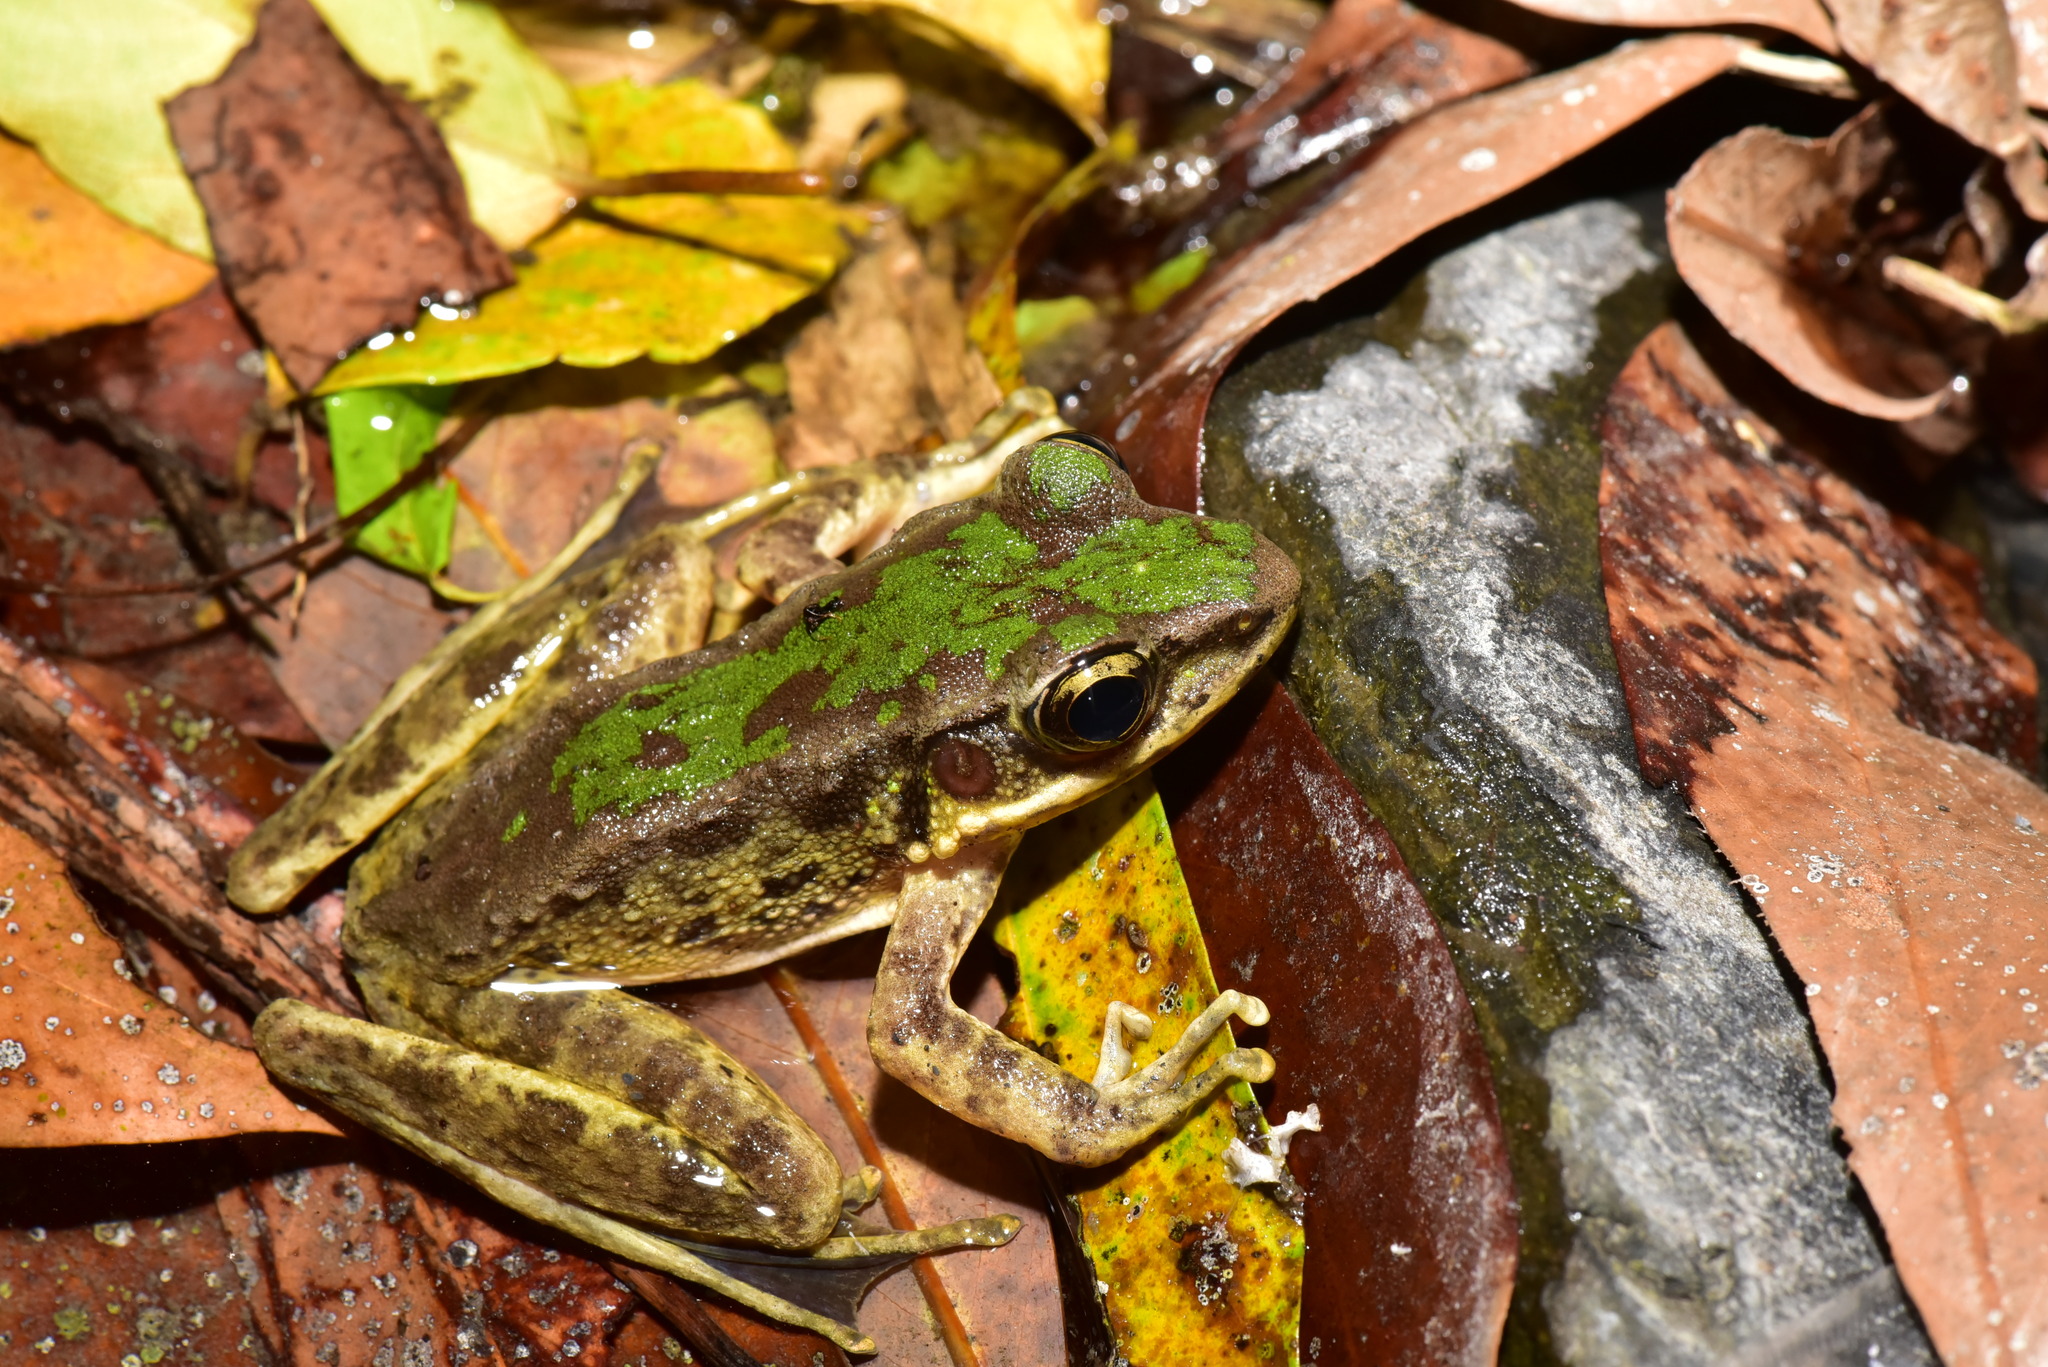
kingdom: Animalia
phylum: Chordata
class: Amphibia
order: Anura
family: Ranidae
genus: Odorrana
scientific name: Odorrana swinhoana
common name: Bangkimtsing frog
